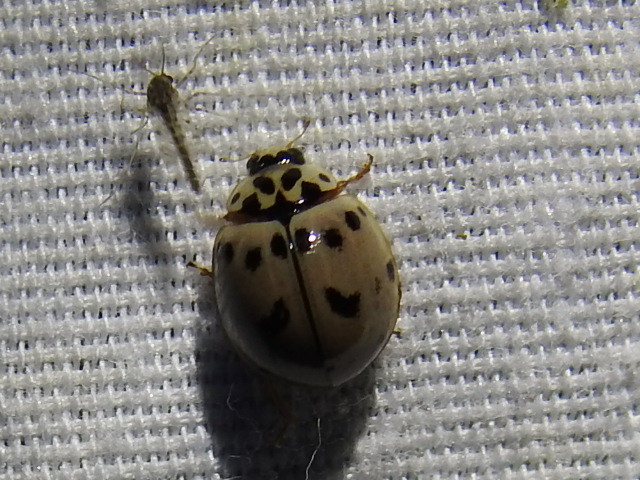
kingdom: Animalia
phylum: Arthropoda
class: Insecta
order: Coleoptera
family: Coccinellidae
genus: Olla
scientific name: Olla v-nigrum
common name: Ashy gray lady beetle
